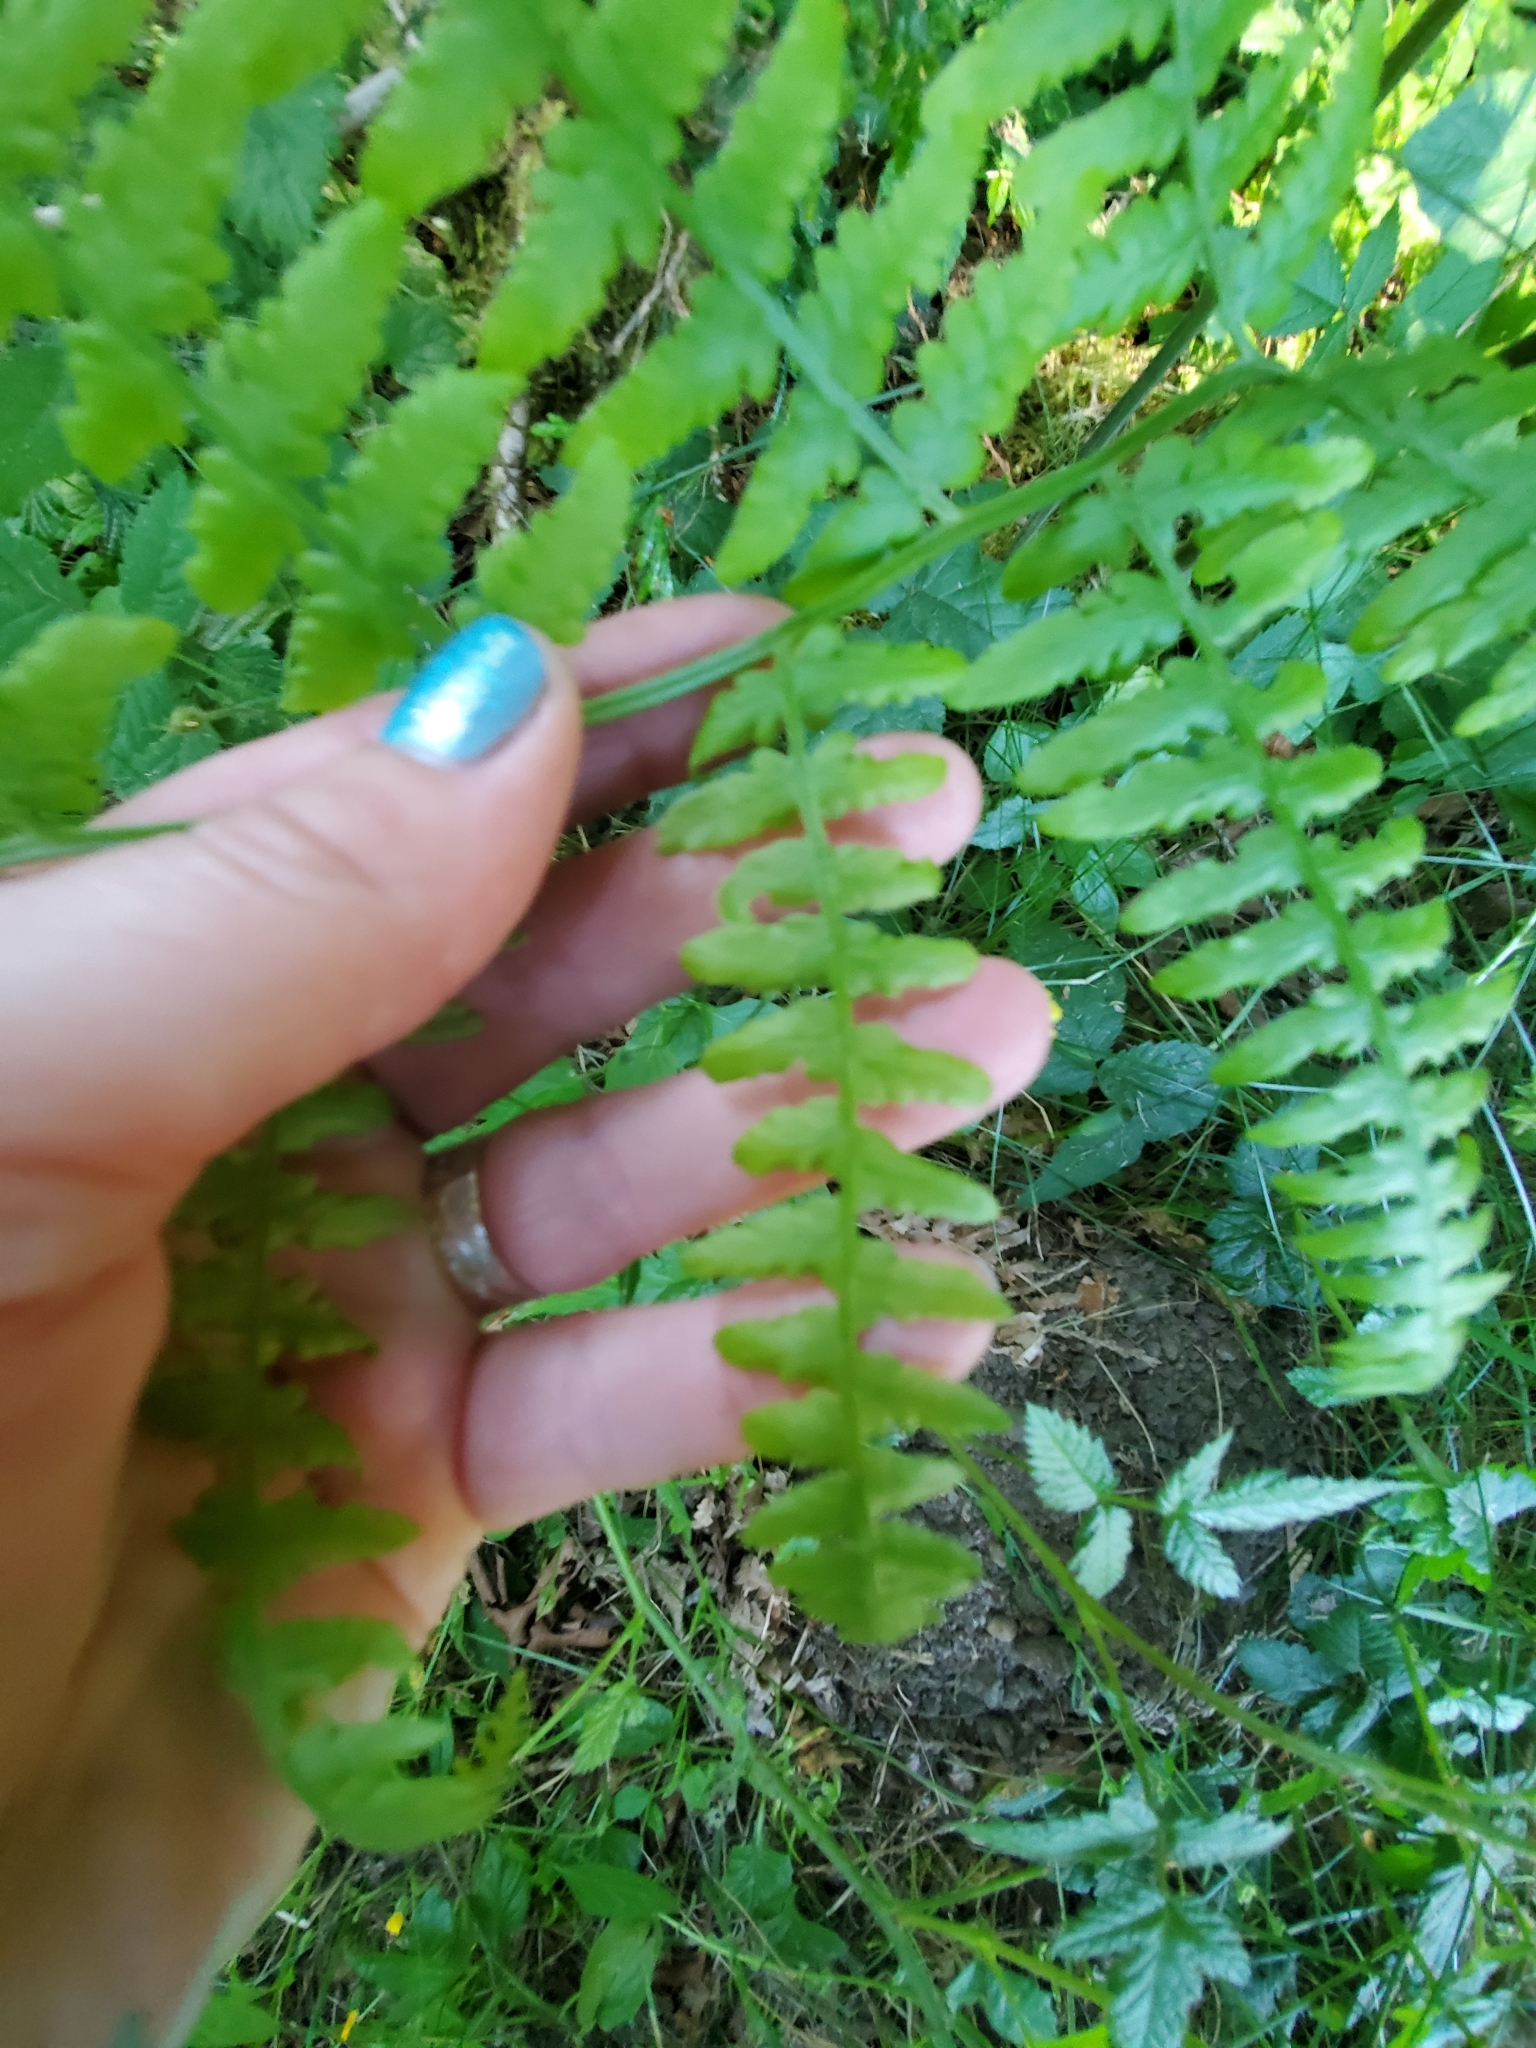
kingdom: Plantae
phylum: Tracheophyta
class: Polypodiopsida
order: Polypodiales
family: Dennstaedtiaceae
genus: Pteridium
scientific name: Pteridium aquilinum
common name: Bracken
